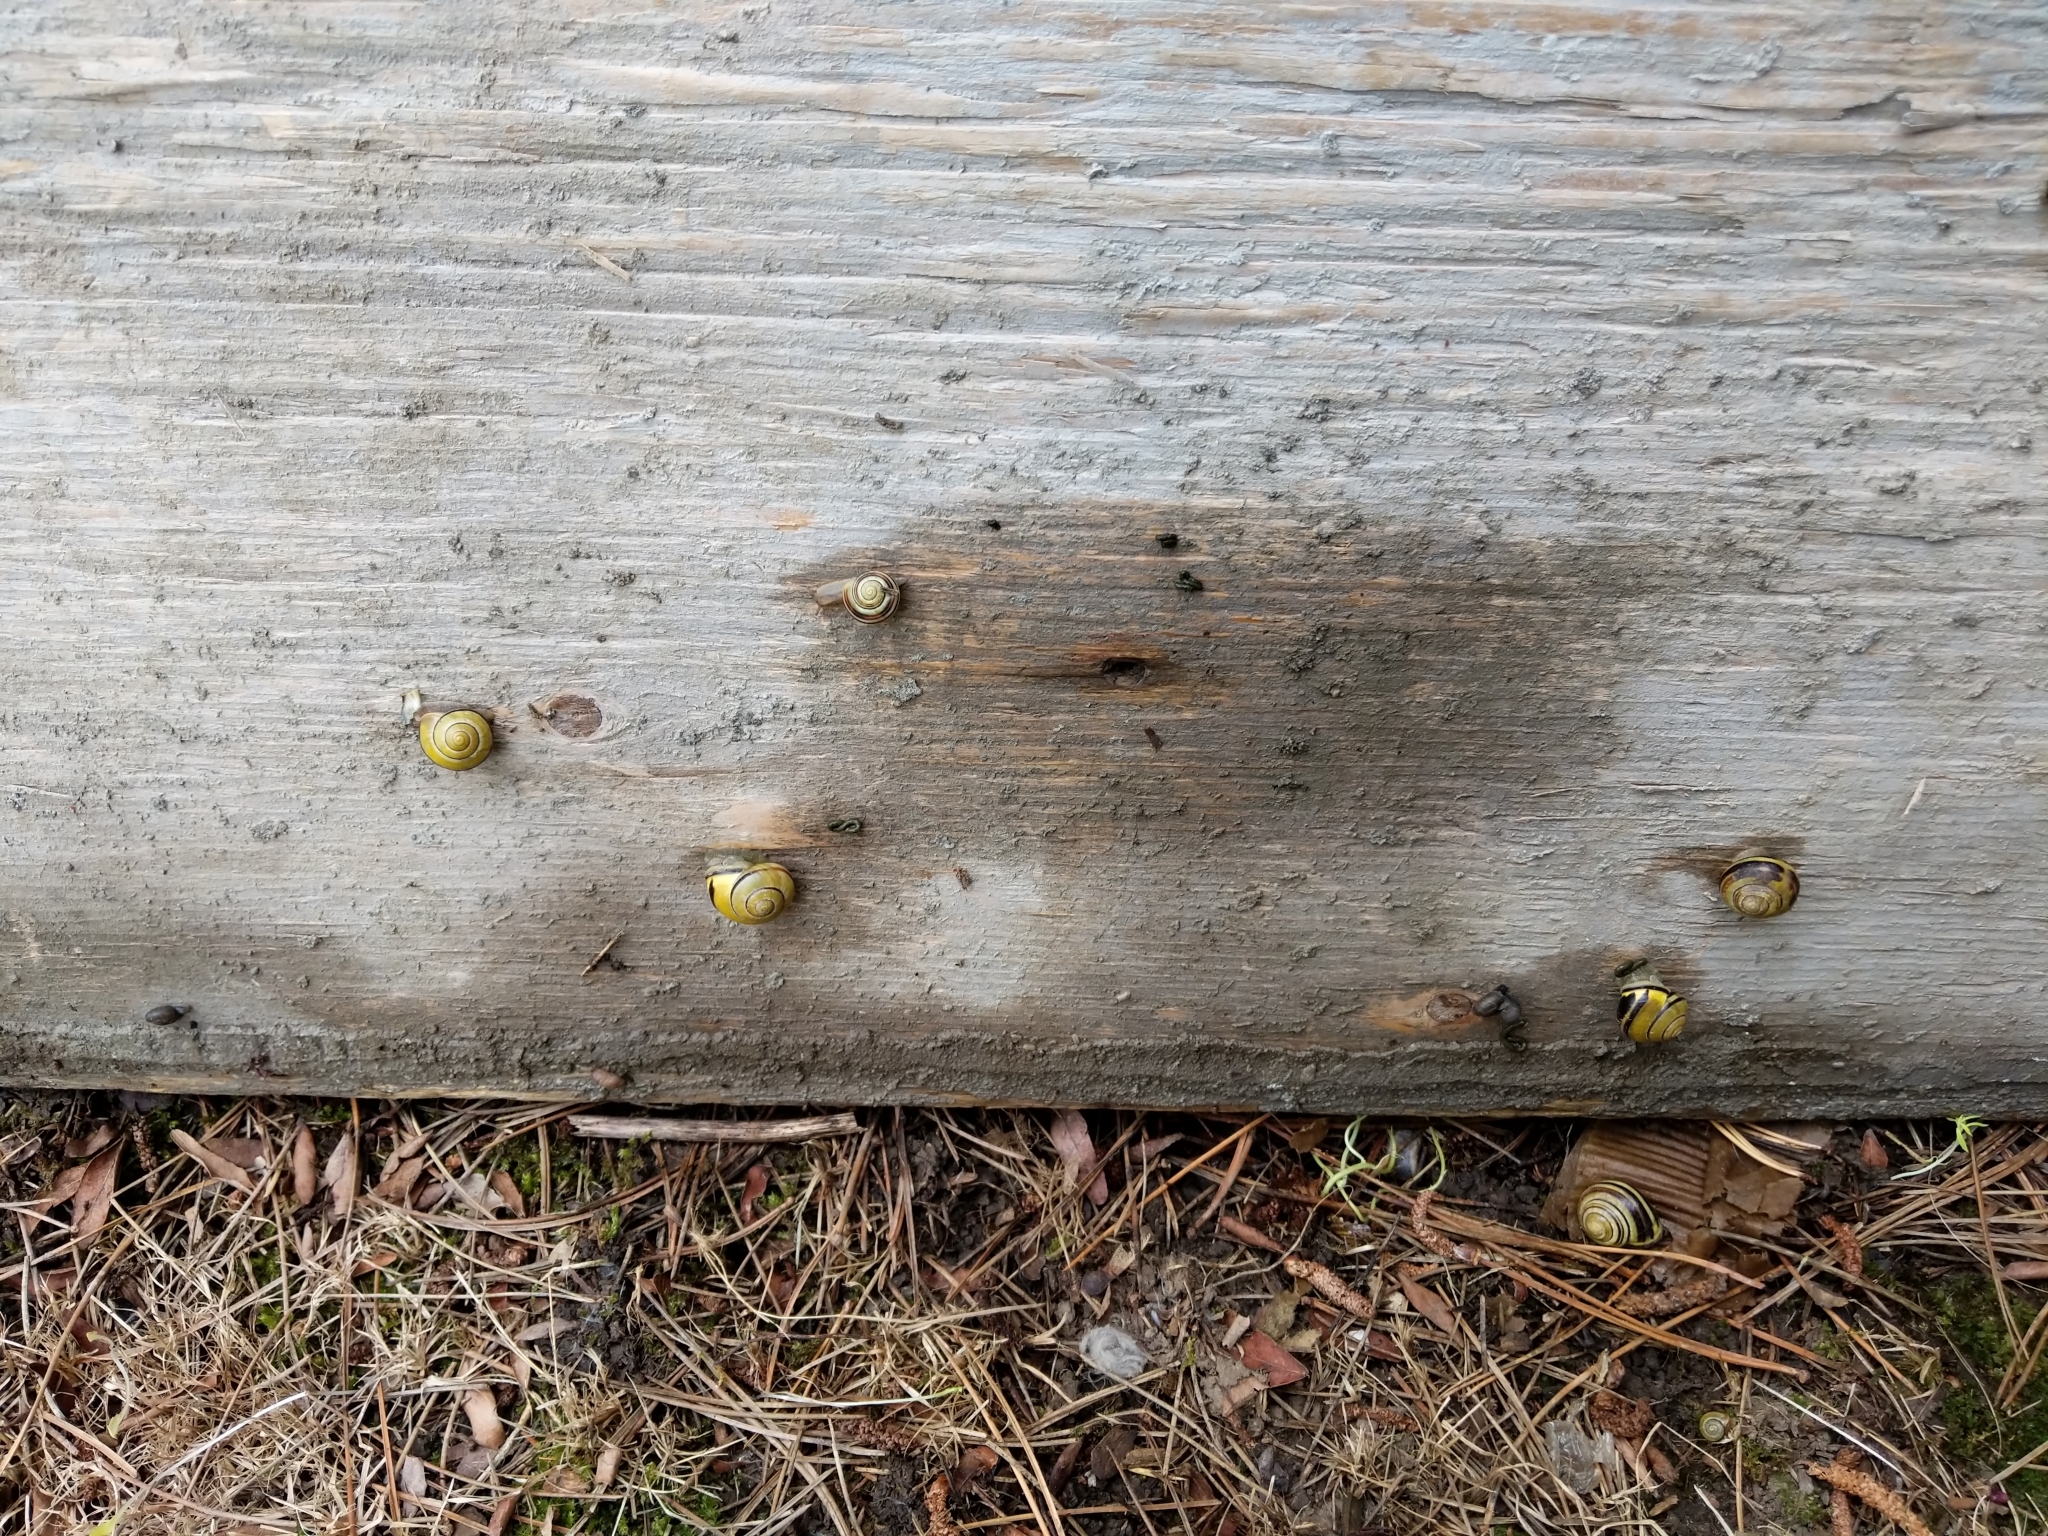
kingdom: Animalia
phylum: Mollusca
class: Gastropoda
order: Stylommatophora
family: Helicidae
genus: Cepaea
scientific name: Cepaea nemoralis
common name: Grovesnail
